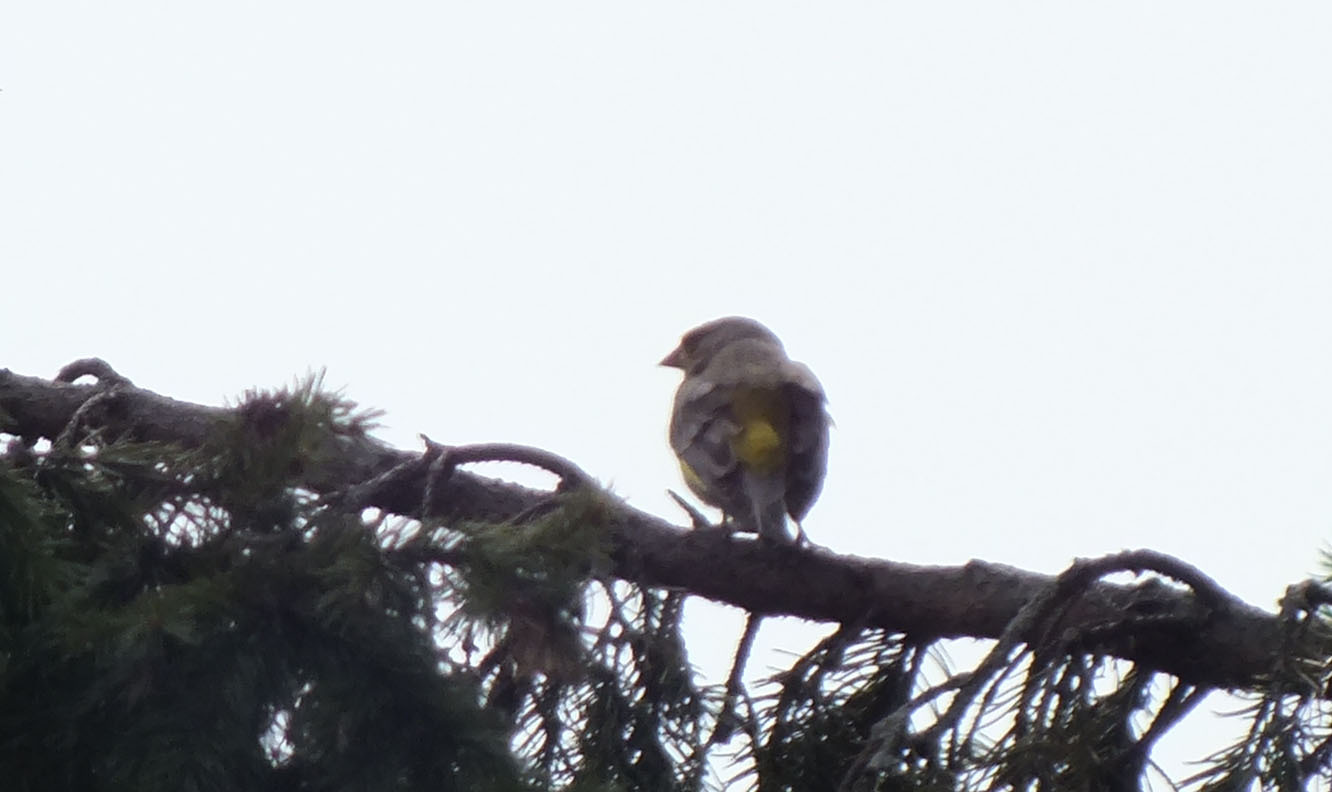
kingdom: Plantae
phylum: Tracheophyta
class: Liliopsida
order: Poales
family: Poaceae
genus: Chloris
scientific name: Chloris chloris
